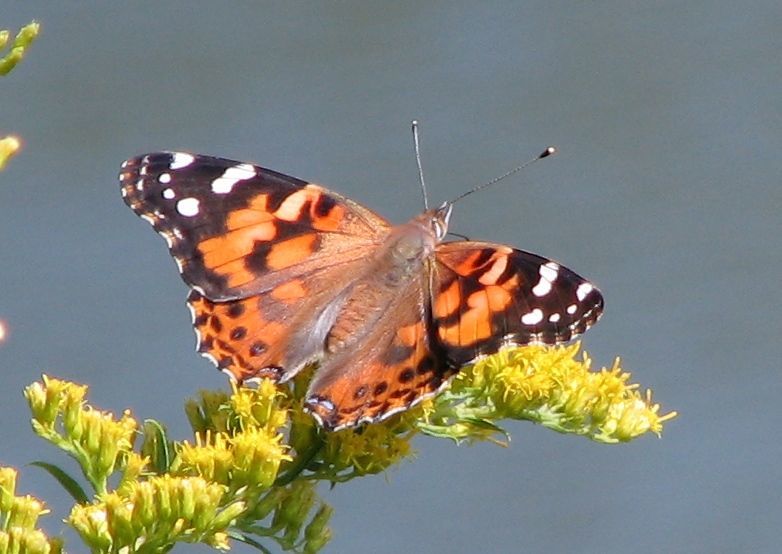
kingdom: Animalia
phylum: Arthropoda
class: Insecta
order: Lepidoptera
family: Nymphalidae
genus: Vanessa
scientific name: Vanessa cardui
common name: Painted lady
